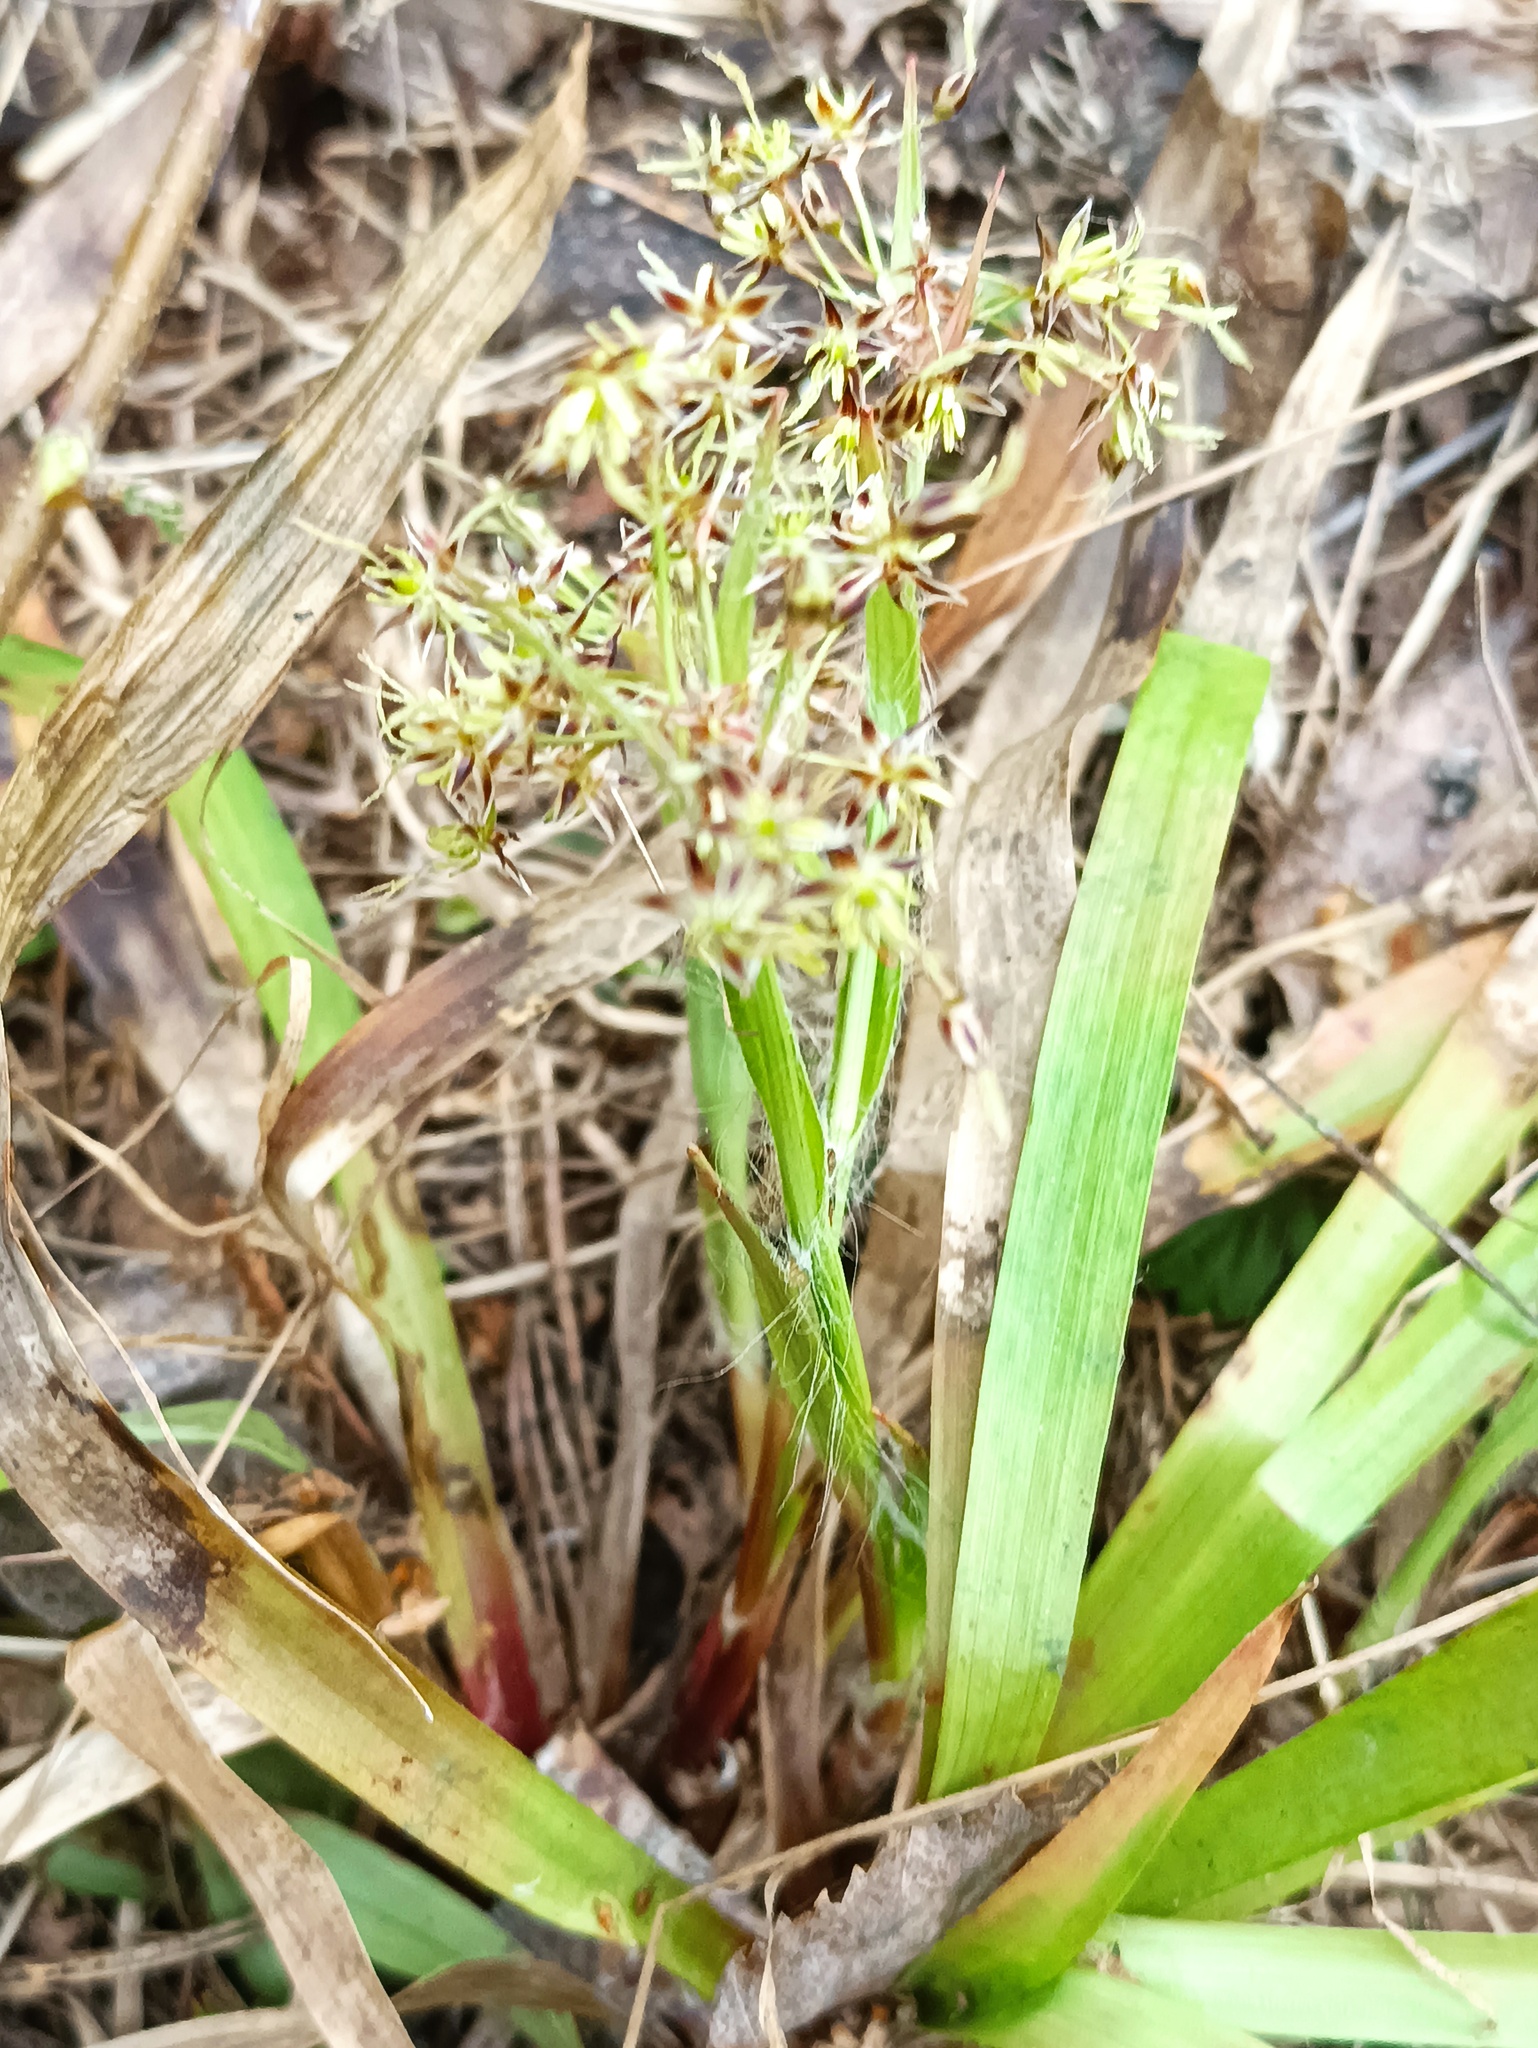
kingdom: Plantae
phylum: Tracheophyta
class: Liliopsida
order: Poales
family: Juncaceae
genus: Luzula
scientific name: Luzula pilosa
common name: Hairy wood-rush
